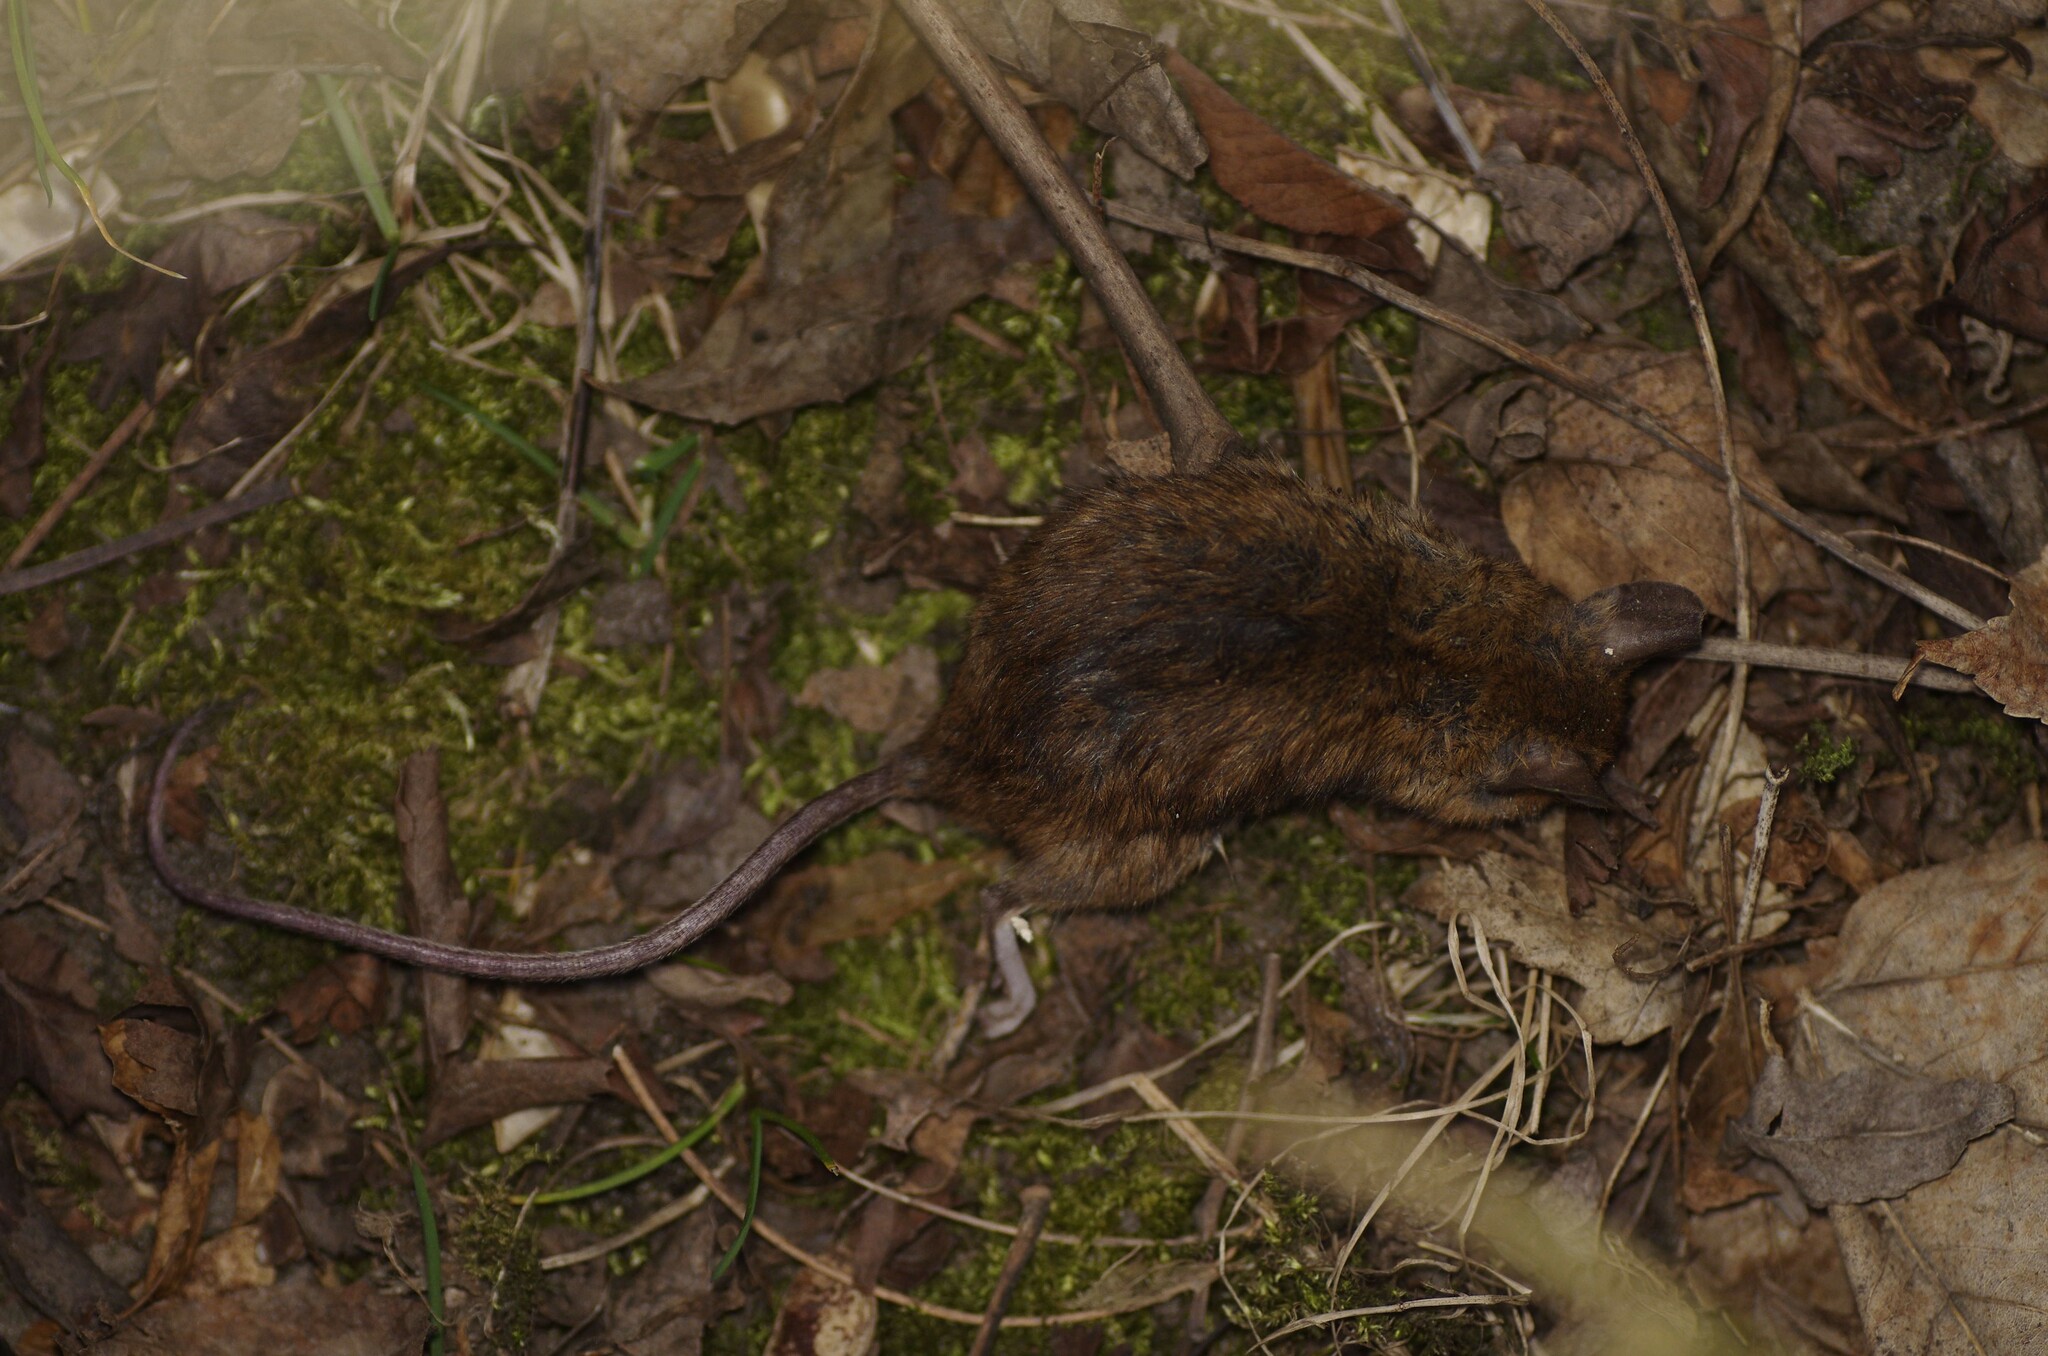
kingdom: Animalia
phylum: Chordata
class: Mammalia
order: Rodentia
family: Muridae
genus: Apodemus
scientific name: Apodemus sylvaticus
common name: Wood mouse
